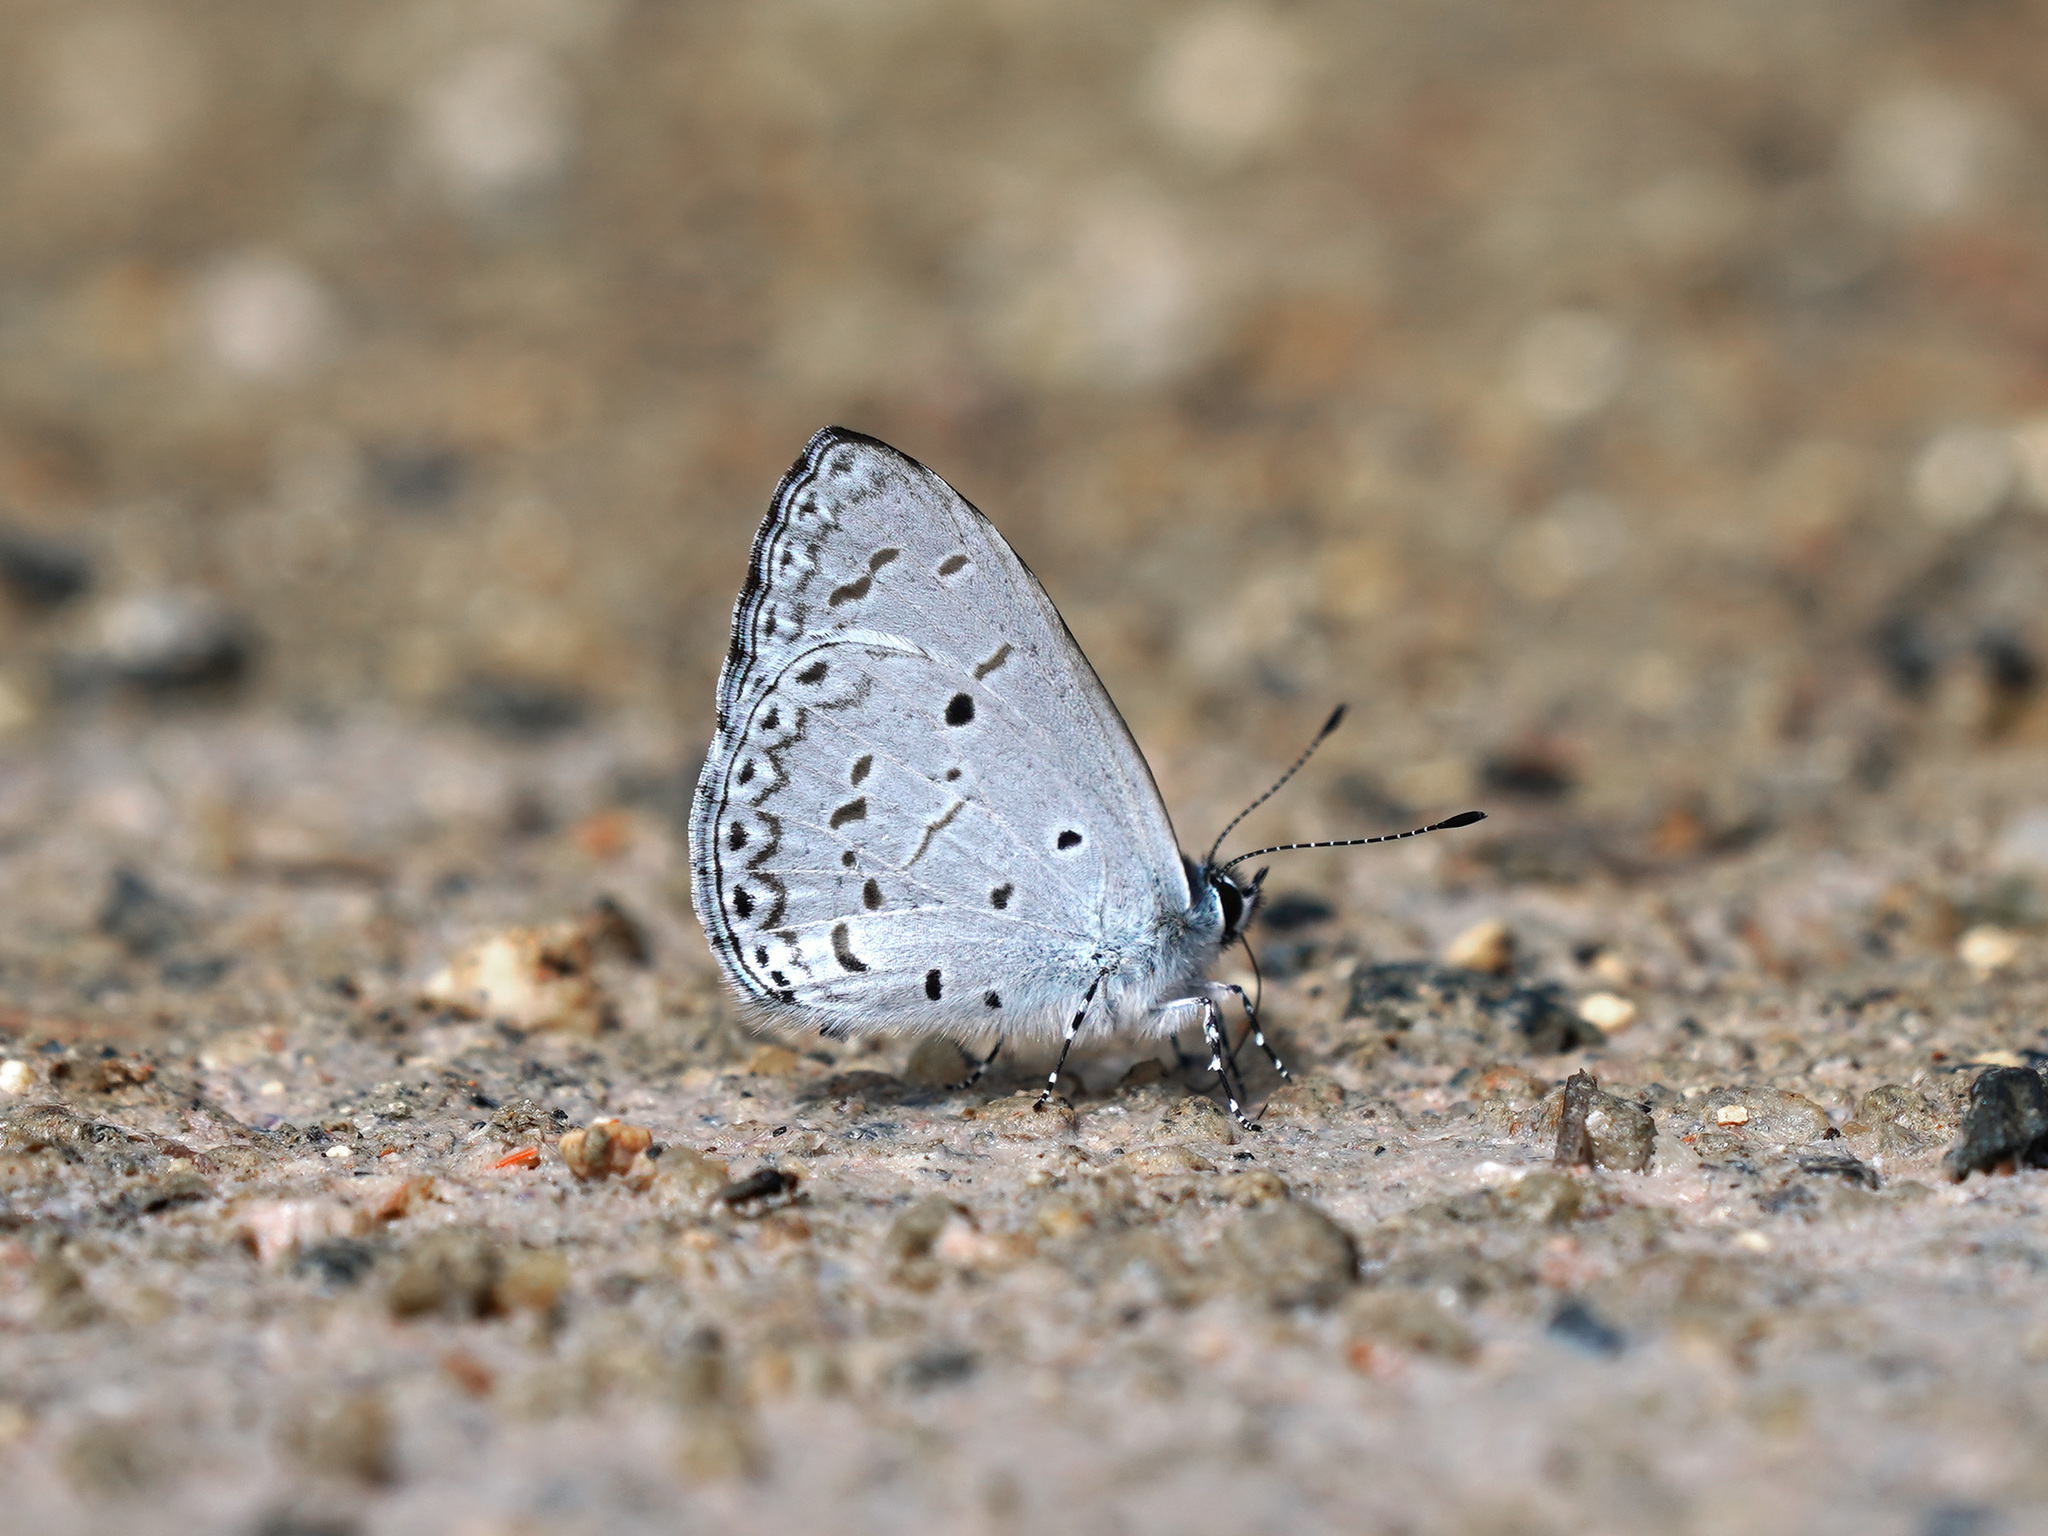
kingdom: Animalia
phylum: Arthropoda
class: Insecta
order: Lepidoptera
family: Lycaenidae
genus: Udara
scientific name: Udara
